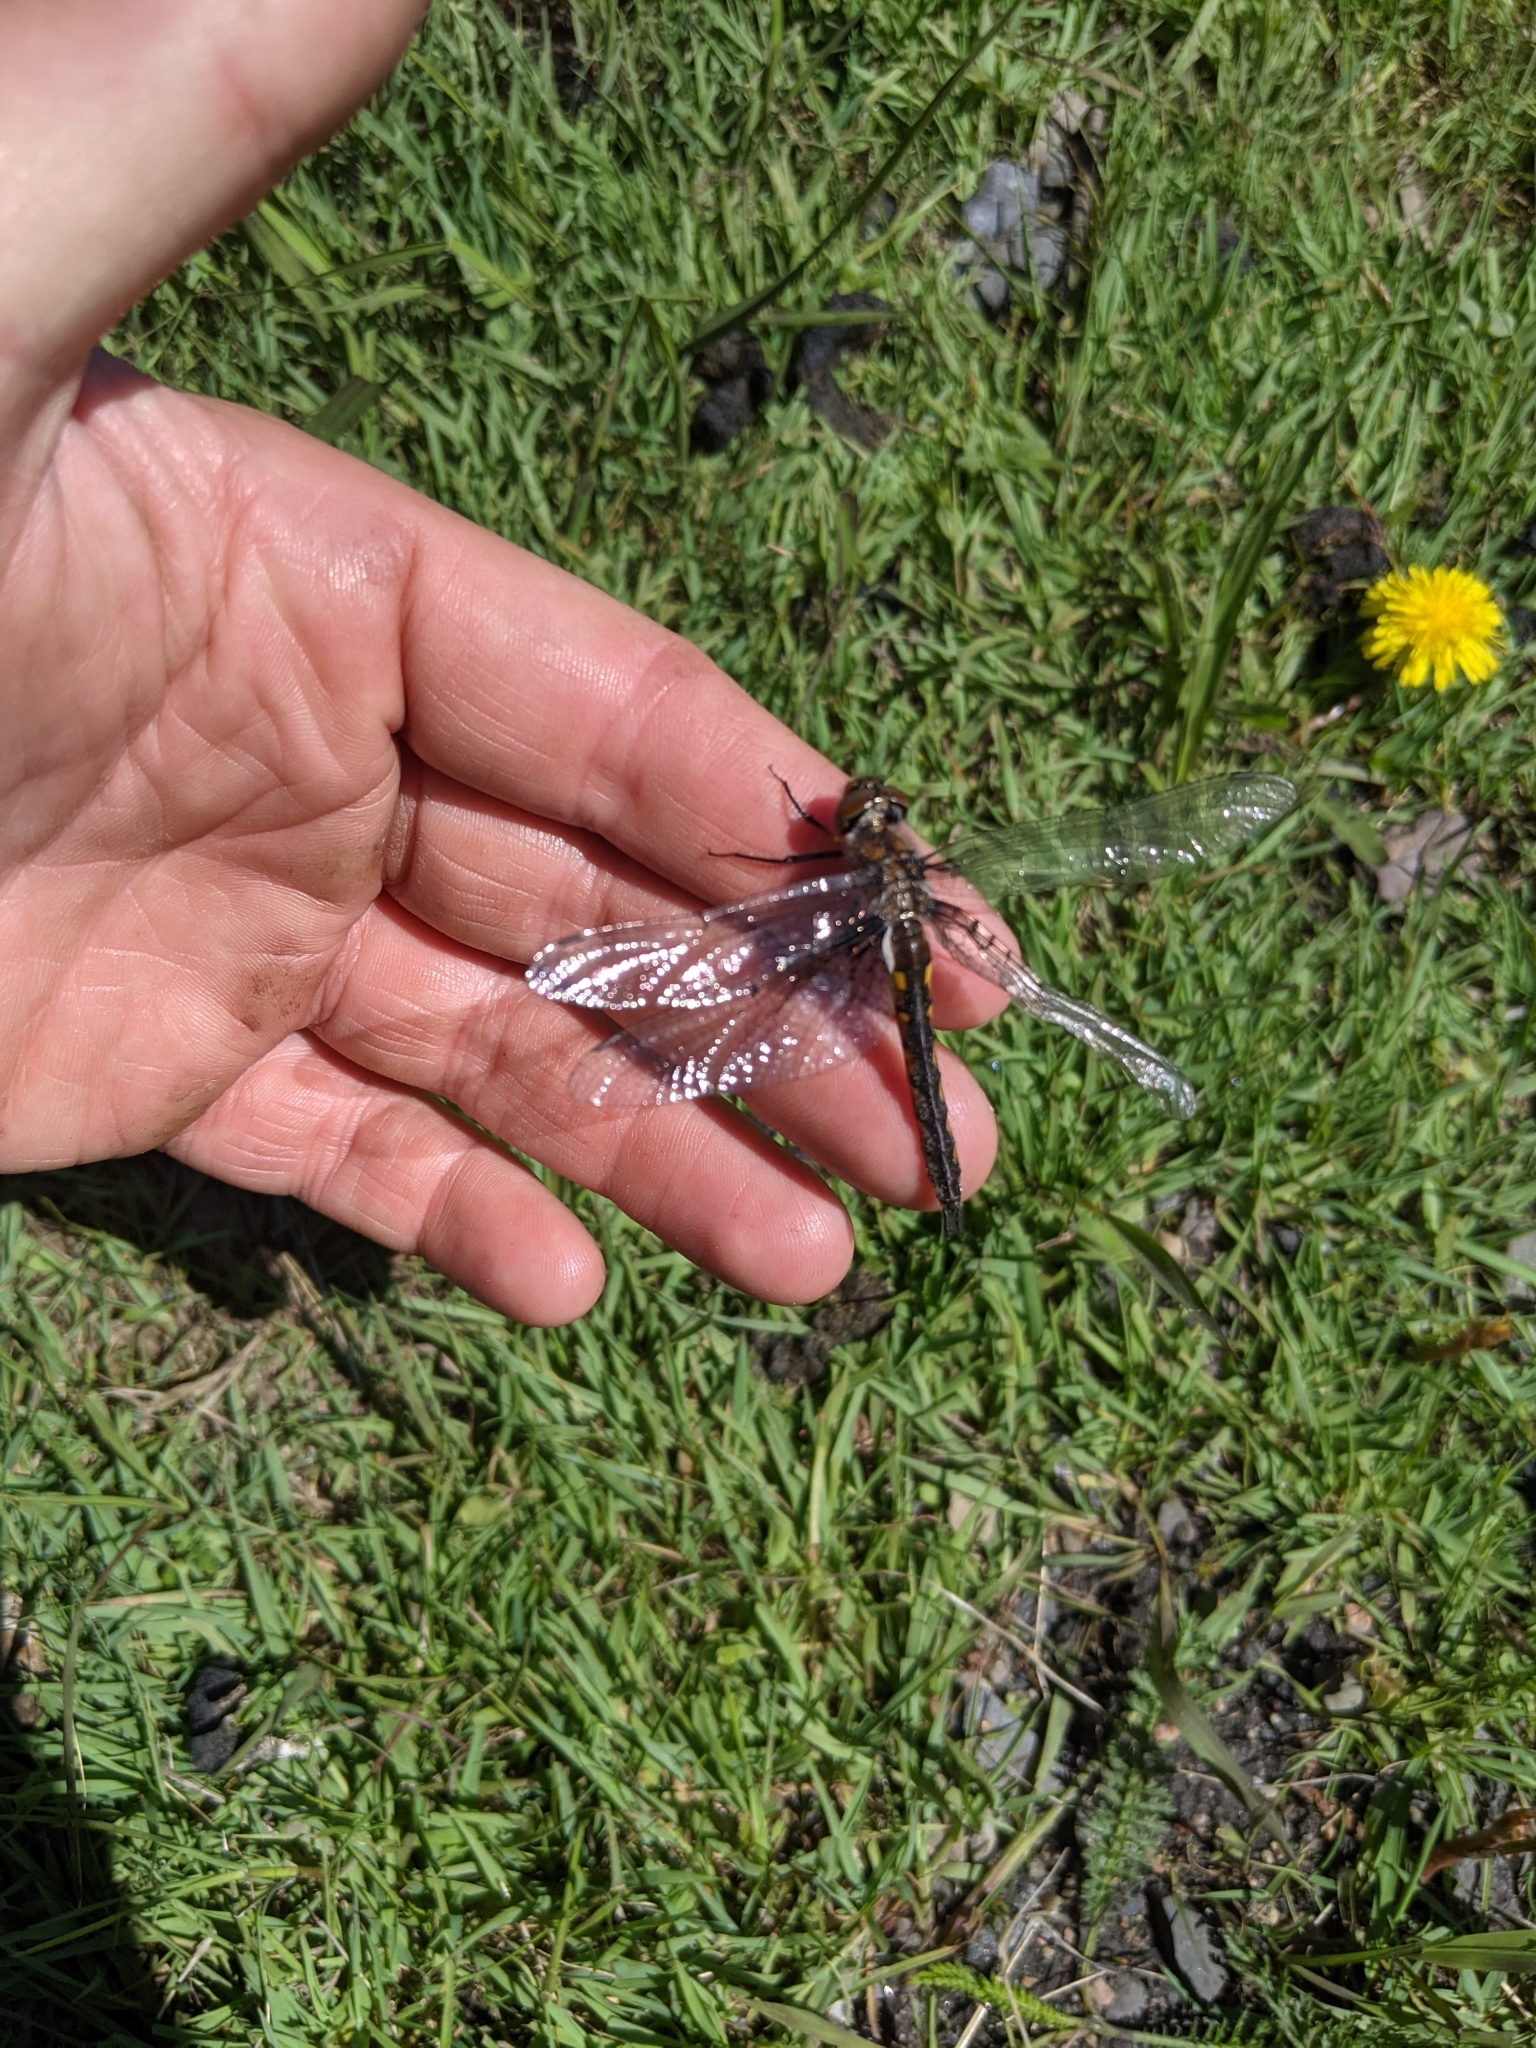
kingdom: Animalia
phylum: Arthropoda
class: Insecta
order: Odonata
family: Corduliidae
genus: Epitheca
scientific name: Epitheca spinigera
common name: Spiny baskettail
